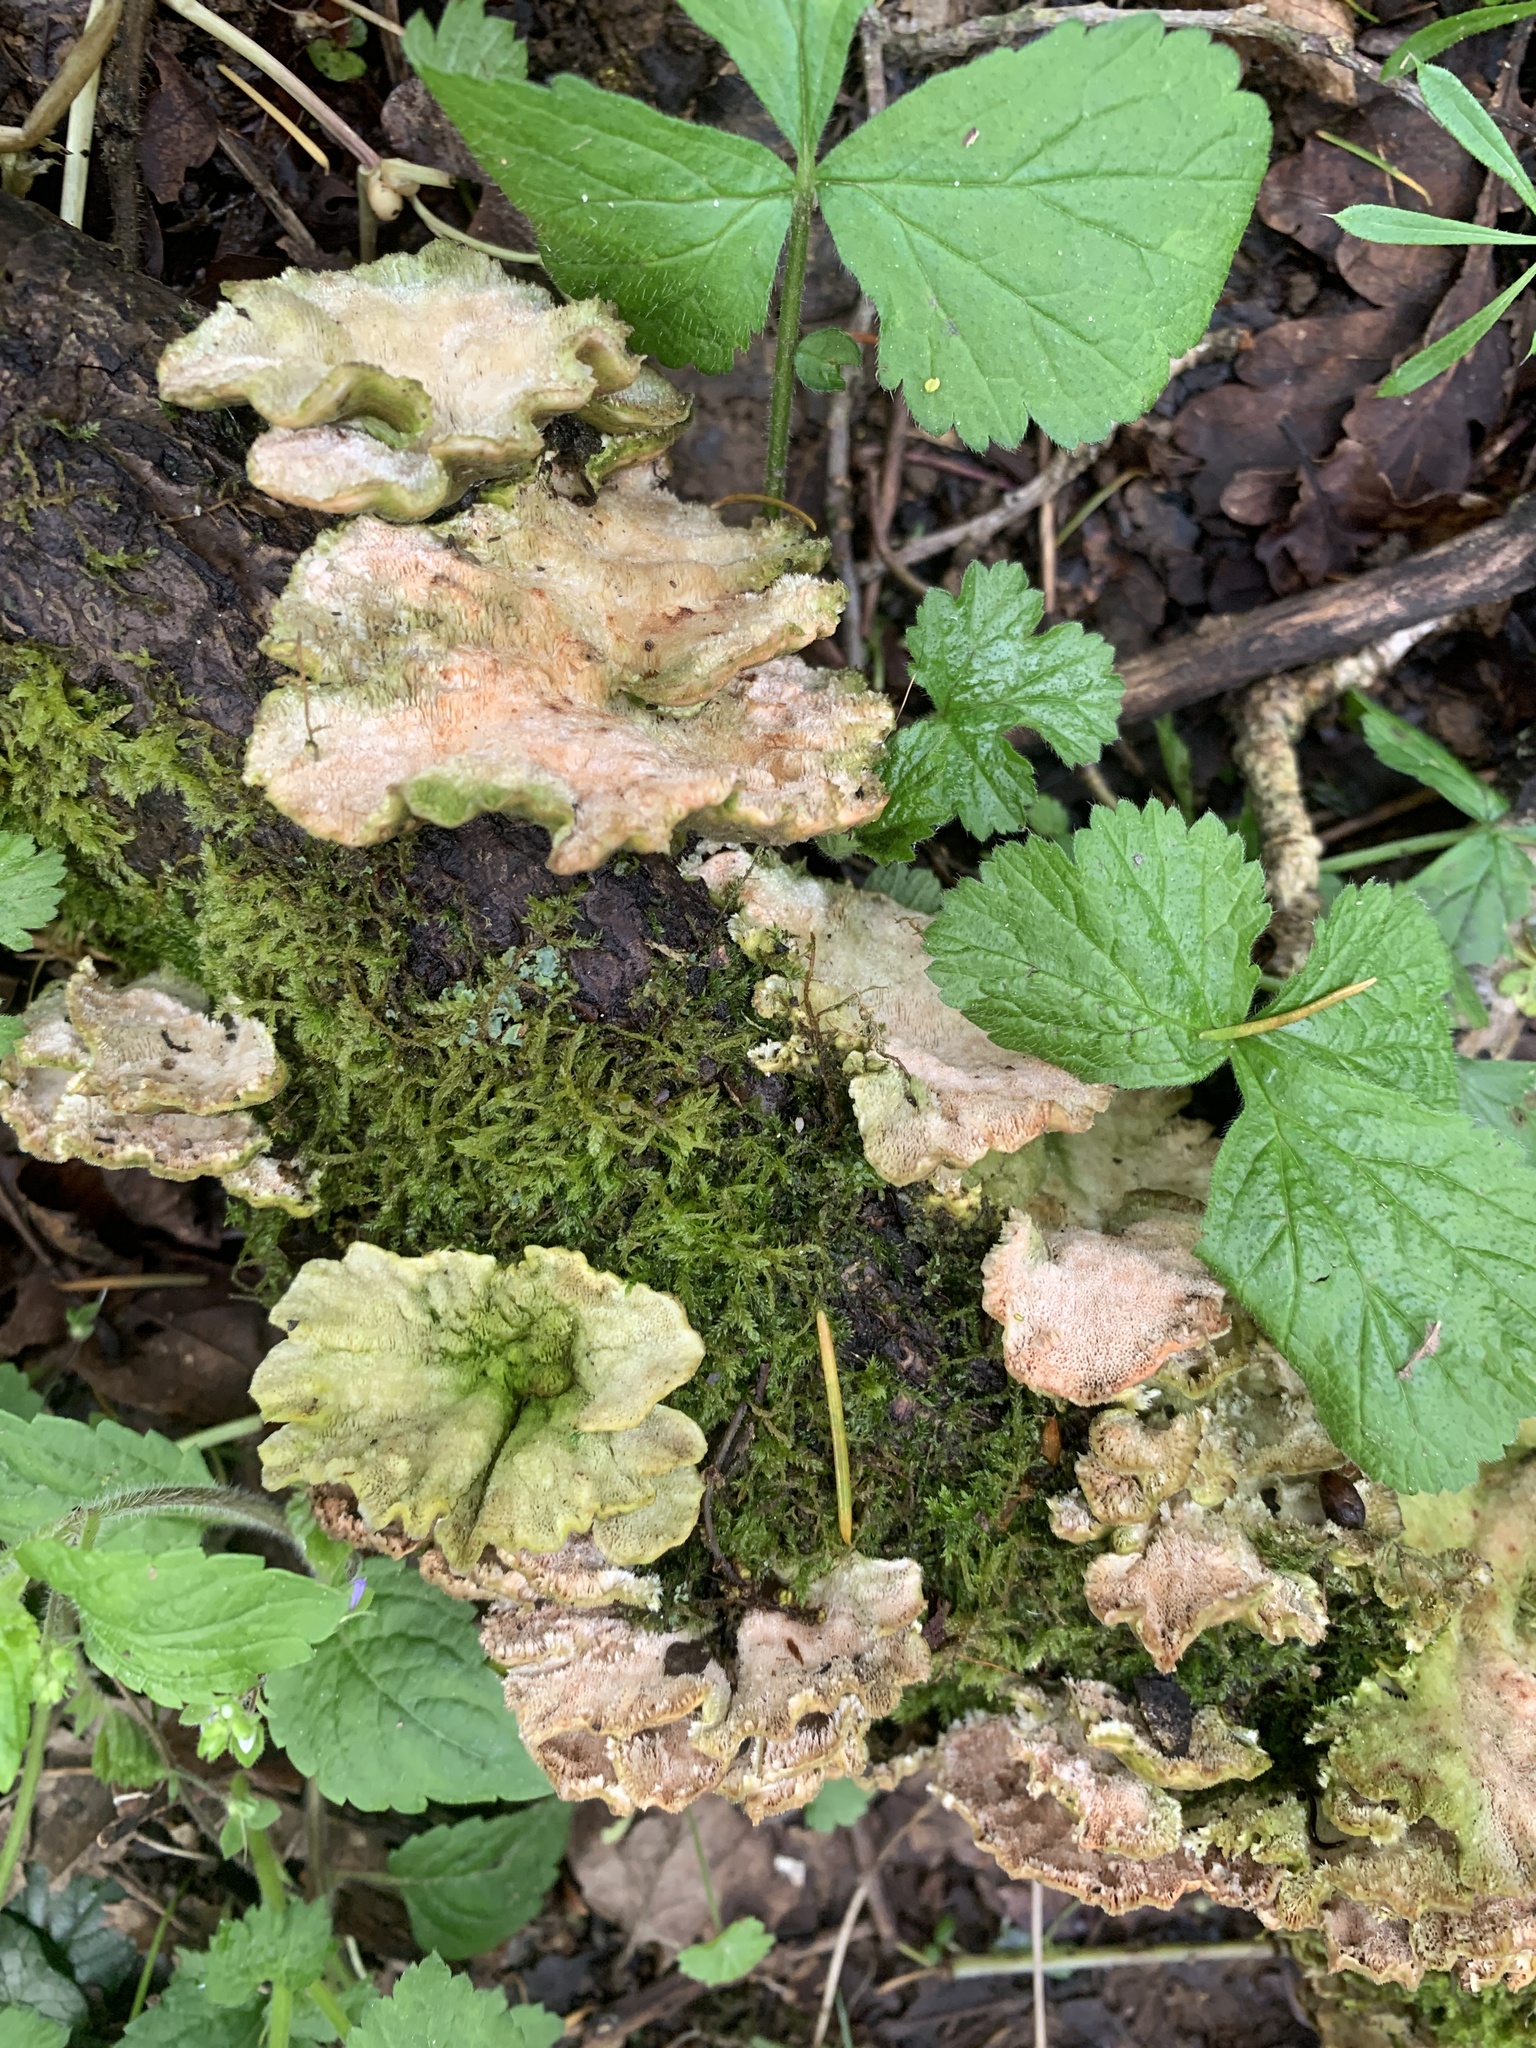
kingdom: Fungi
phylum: Basidiomycota
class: Agaricomycetes
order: Polyporales
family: Laetiporaceae
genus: Laetiporus
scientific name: Laetiporus sulphureus
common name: Chicken of the woods
